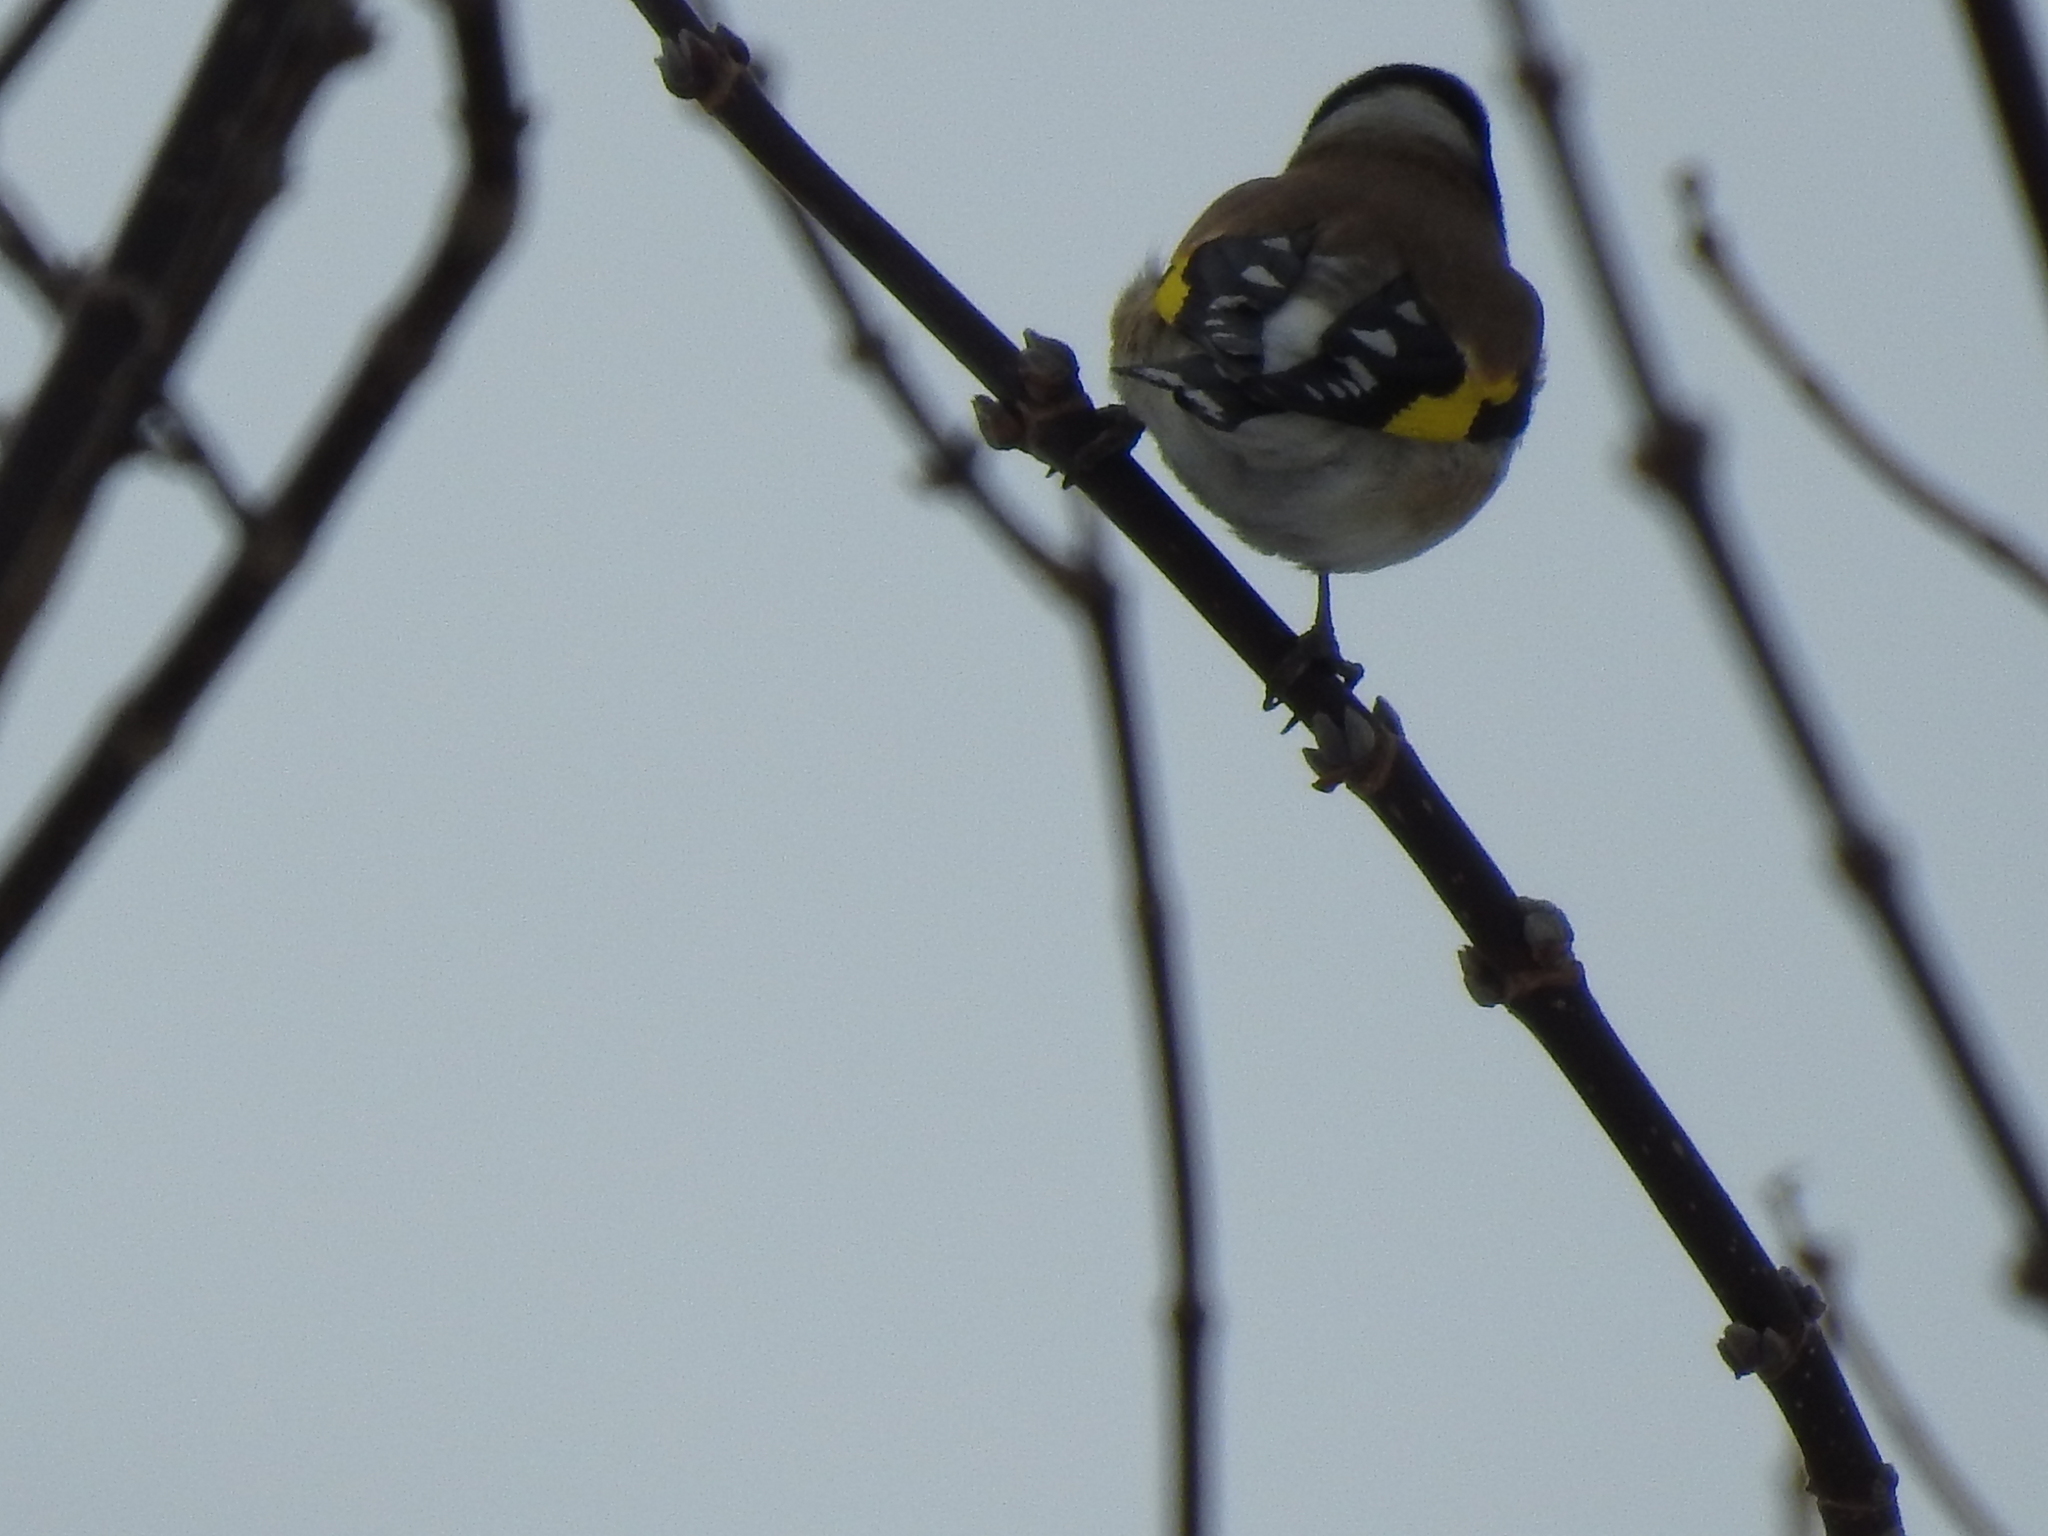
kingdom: Animalia
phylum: Chordata
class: Aves
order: Passeriformes
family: Fringillidae
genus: Carduelis
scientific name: Carduelis carduelis
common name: European goldfinch
